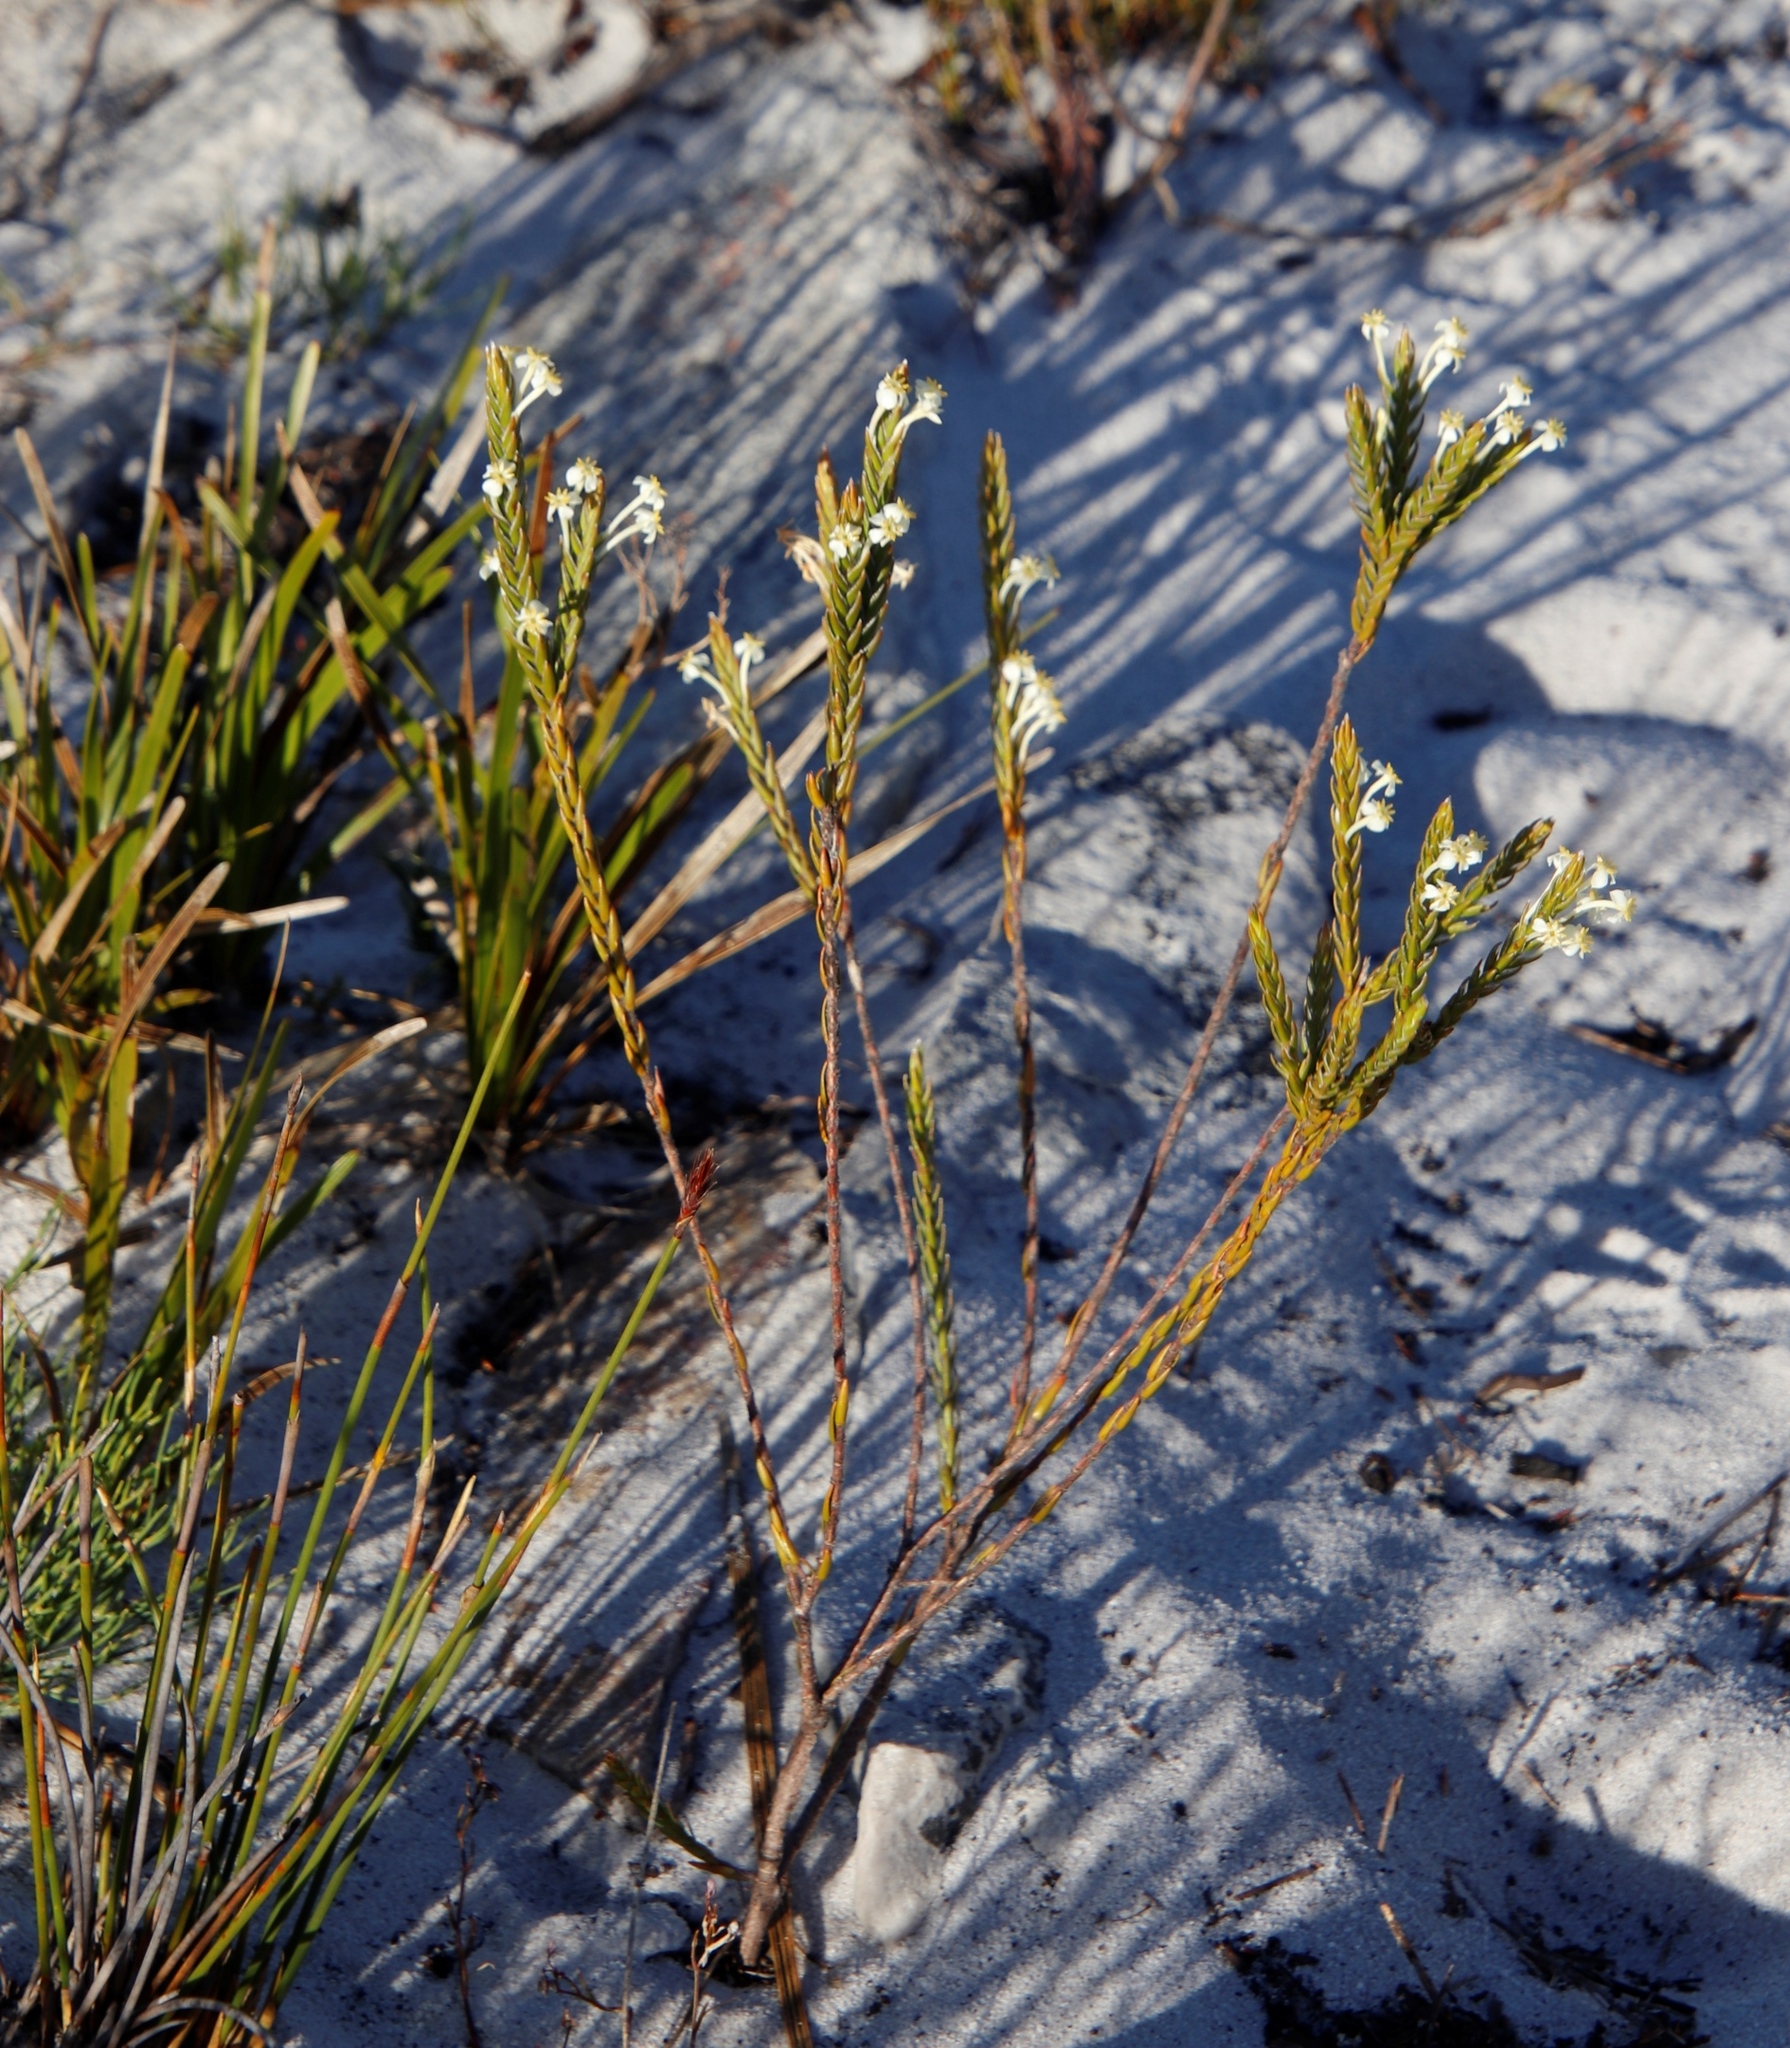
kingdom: Plantae
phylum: Tracheophyta
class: Magnoliopsida
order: Malvales
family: Thymelaeaceae
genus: Struthiola
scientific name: Struthiola ciliata
